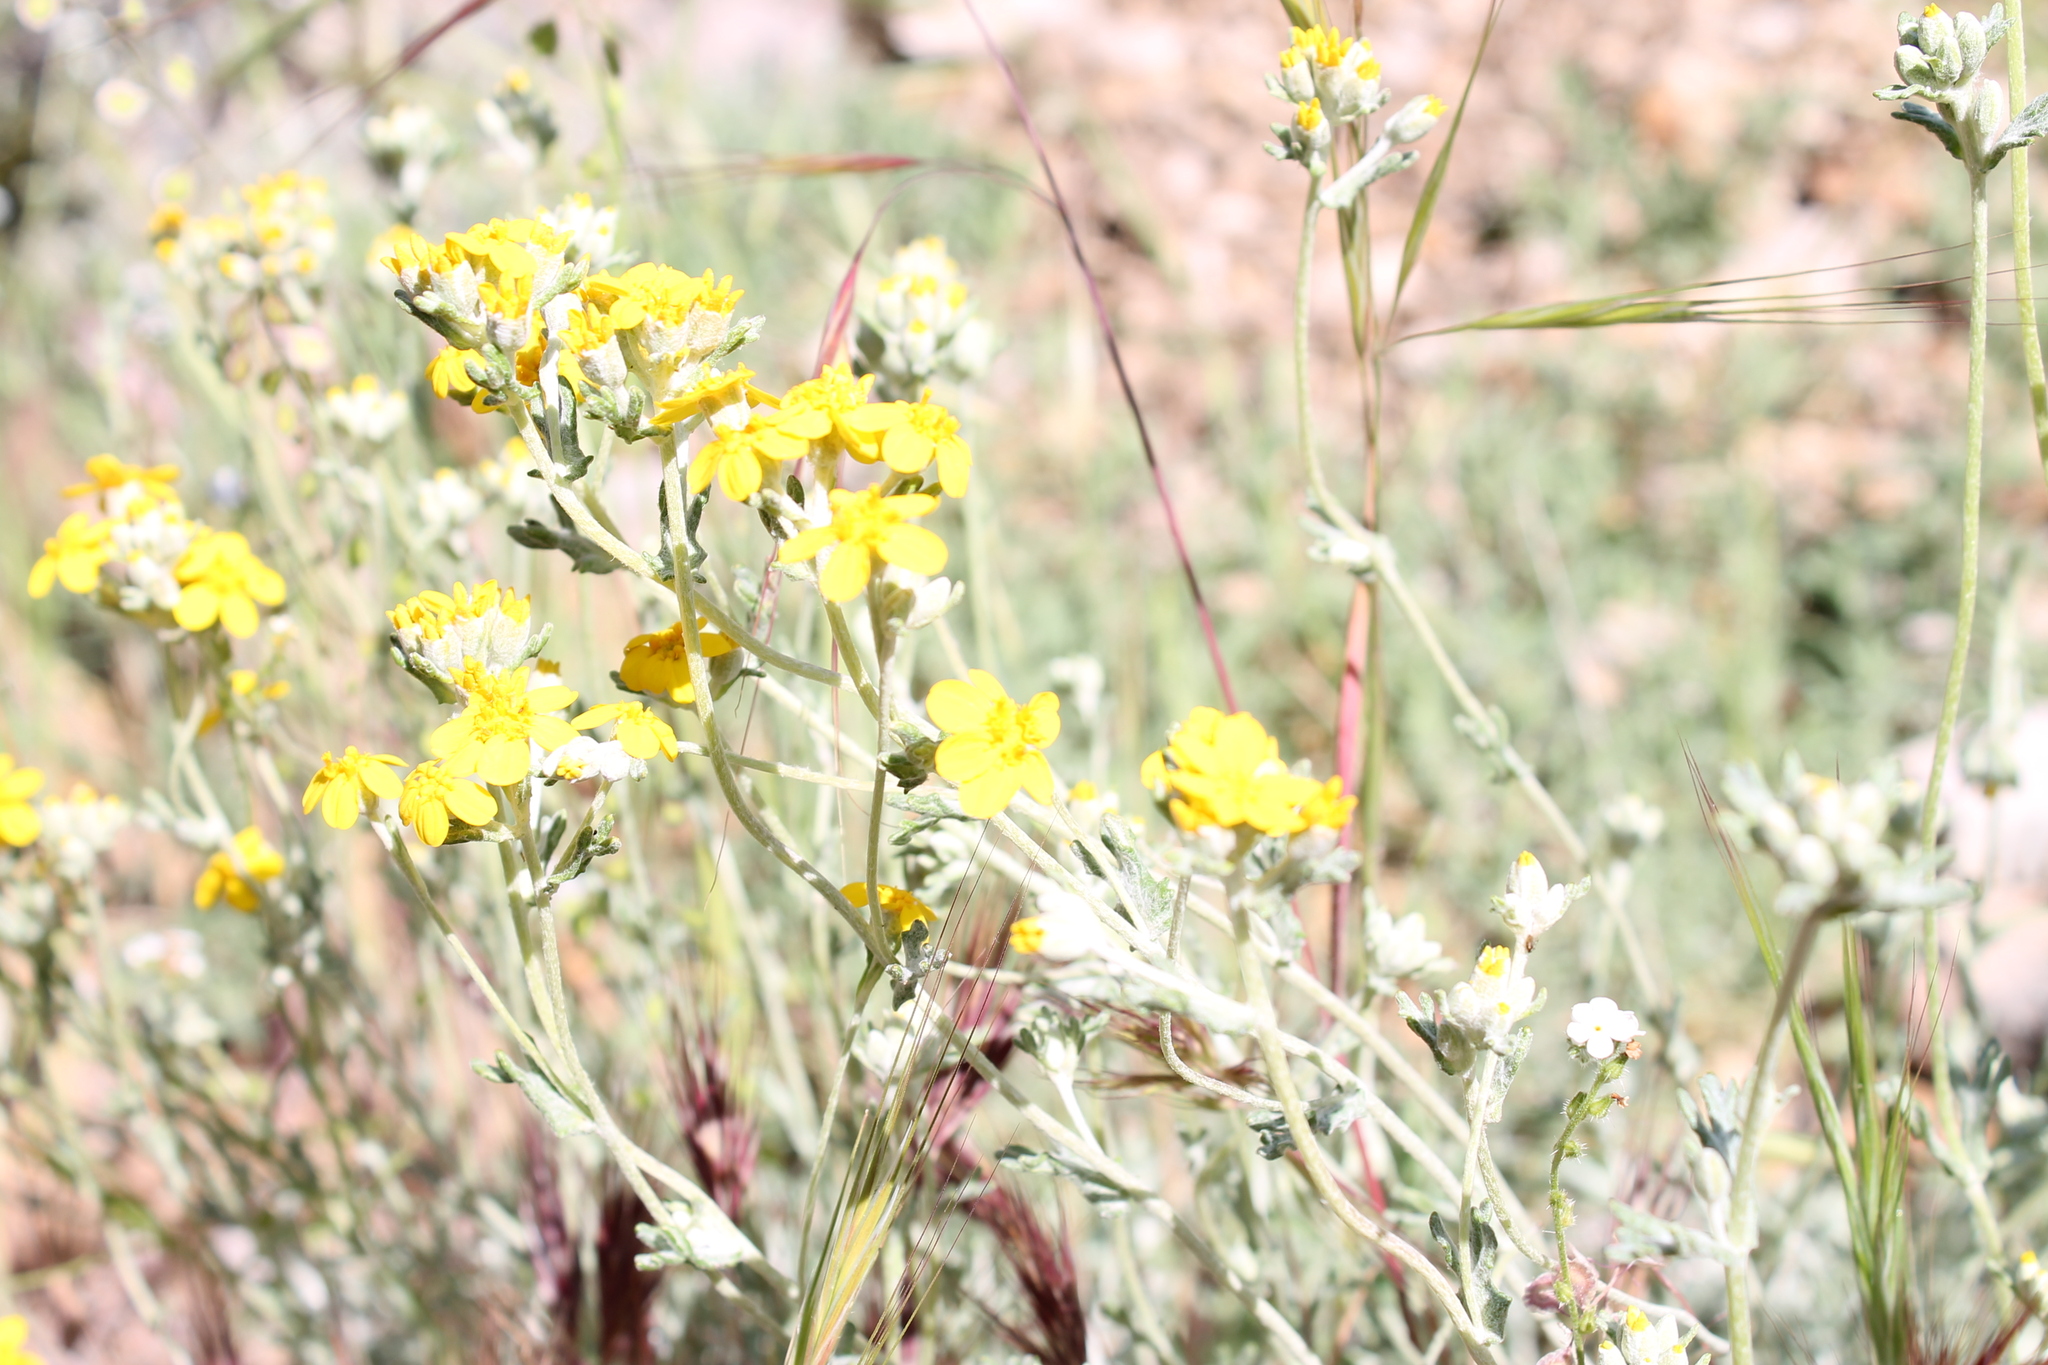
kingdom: Plantae
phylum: Tracheophyta
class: Magnoliopsida
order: Asterales
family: Asteraceae
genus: Eriophyllum
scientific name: Eriophyllum confertiflorum
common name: Golden-yarrow
